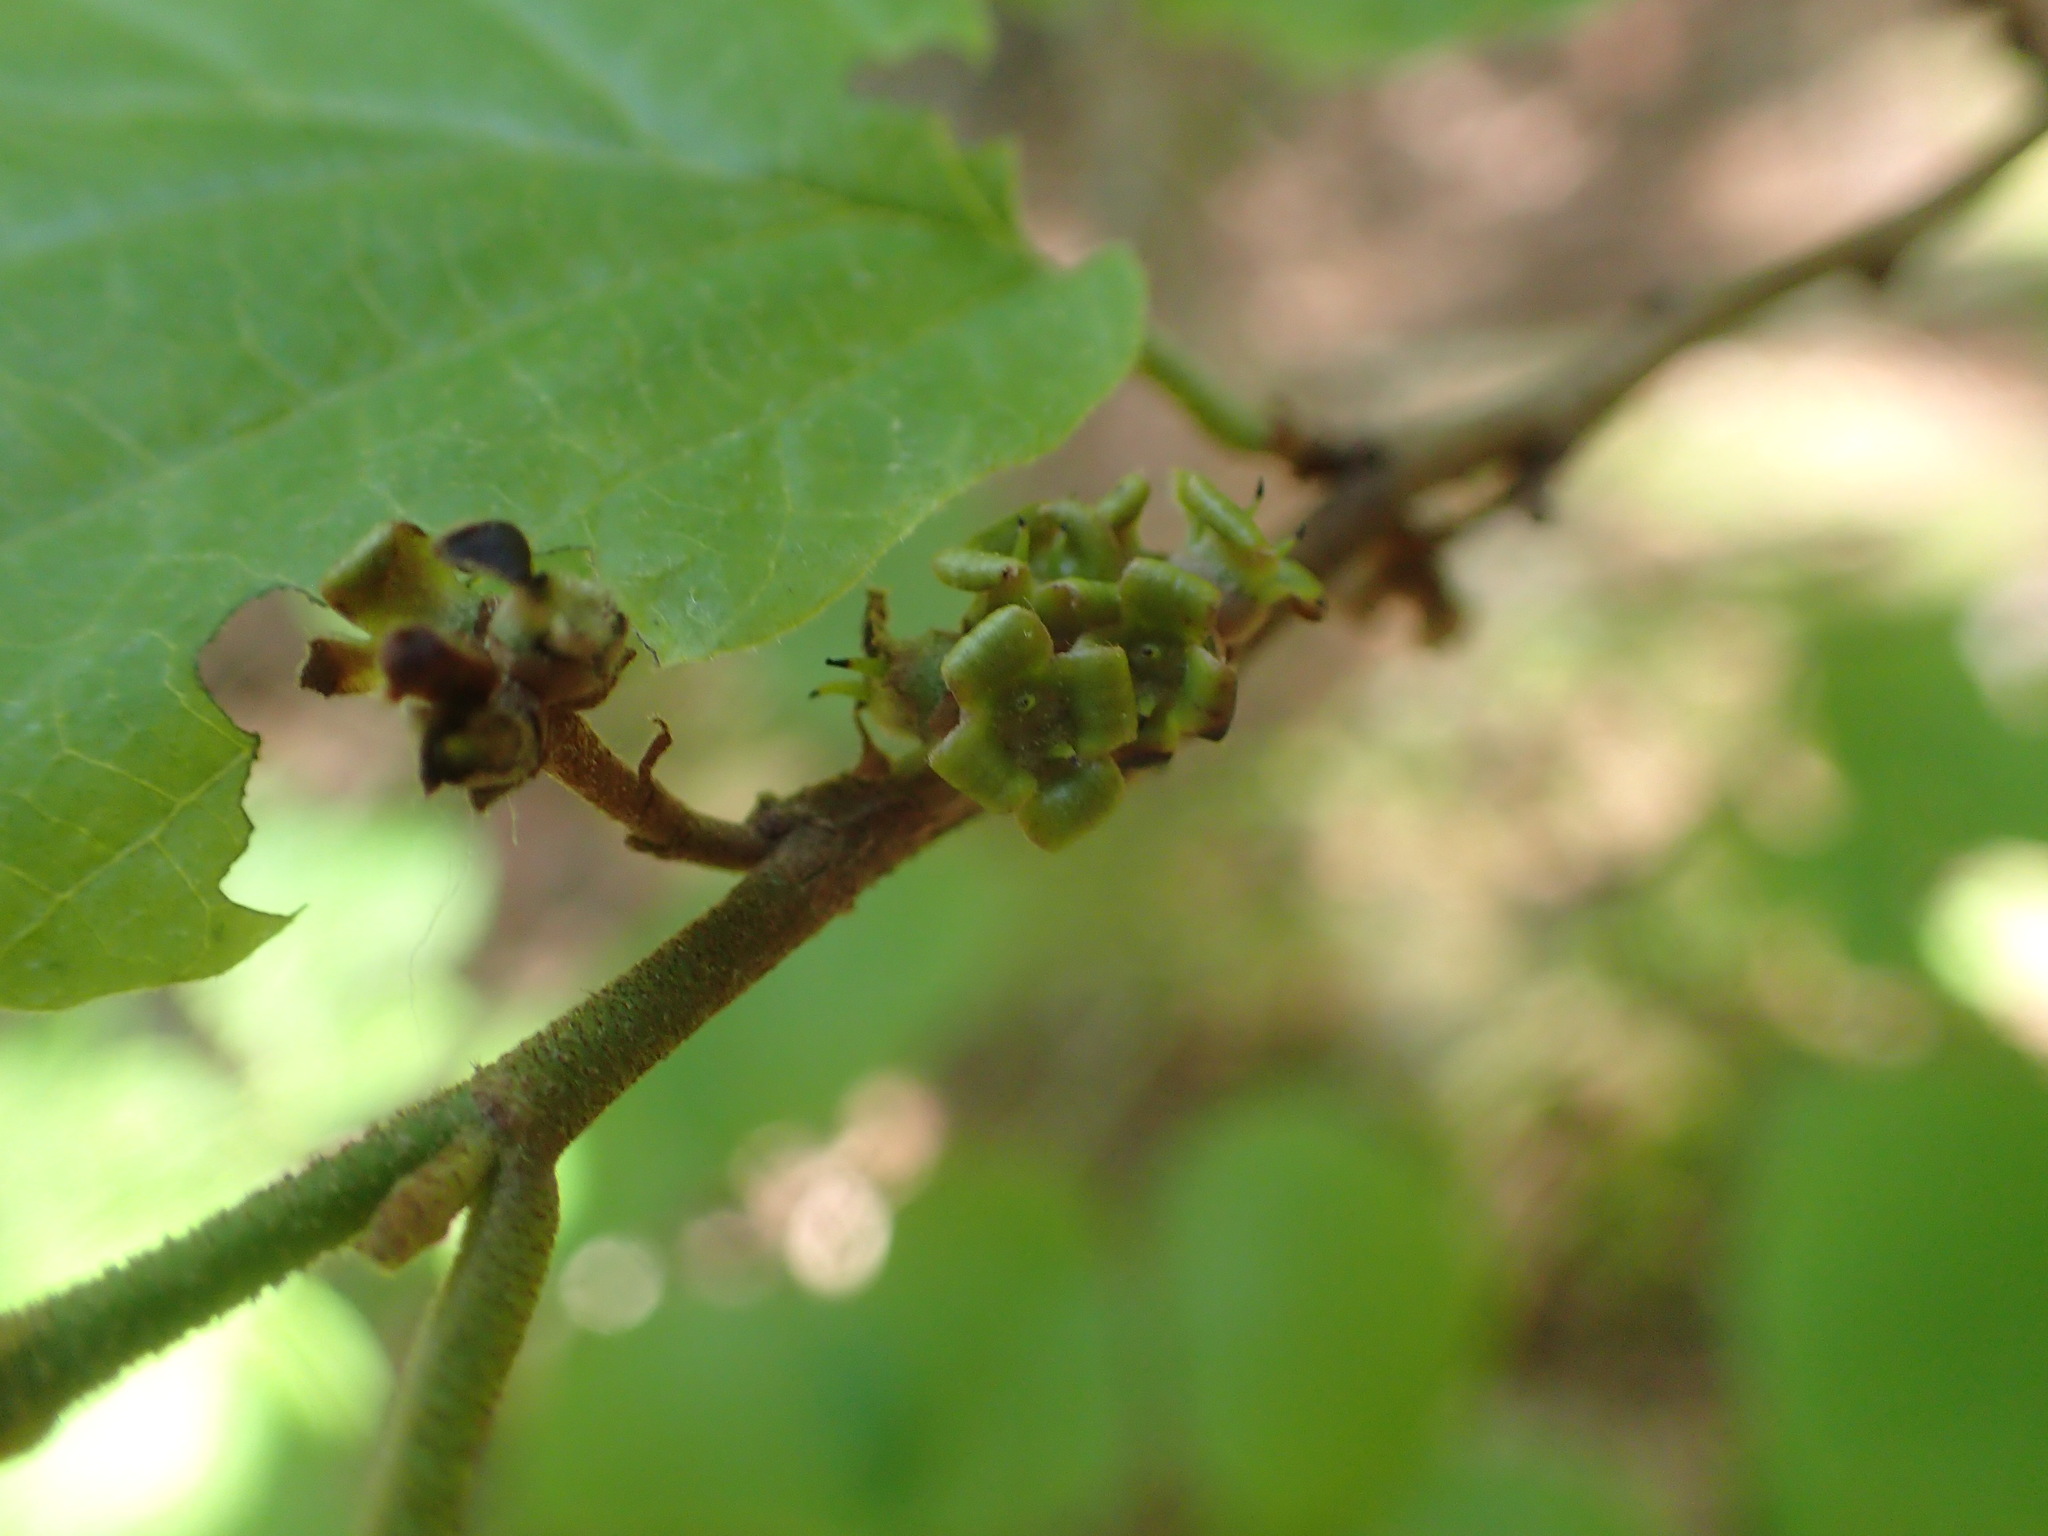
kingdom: Plantae
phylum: Tracheophyta
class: Magnoliopsida
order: Saxifragales
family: Hamamelidaceae
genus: Hamamelis
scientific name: Hamamelis virginiana
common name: Witch-hazel
